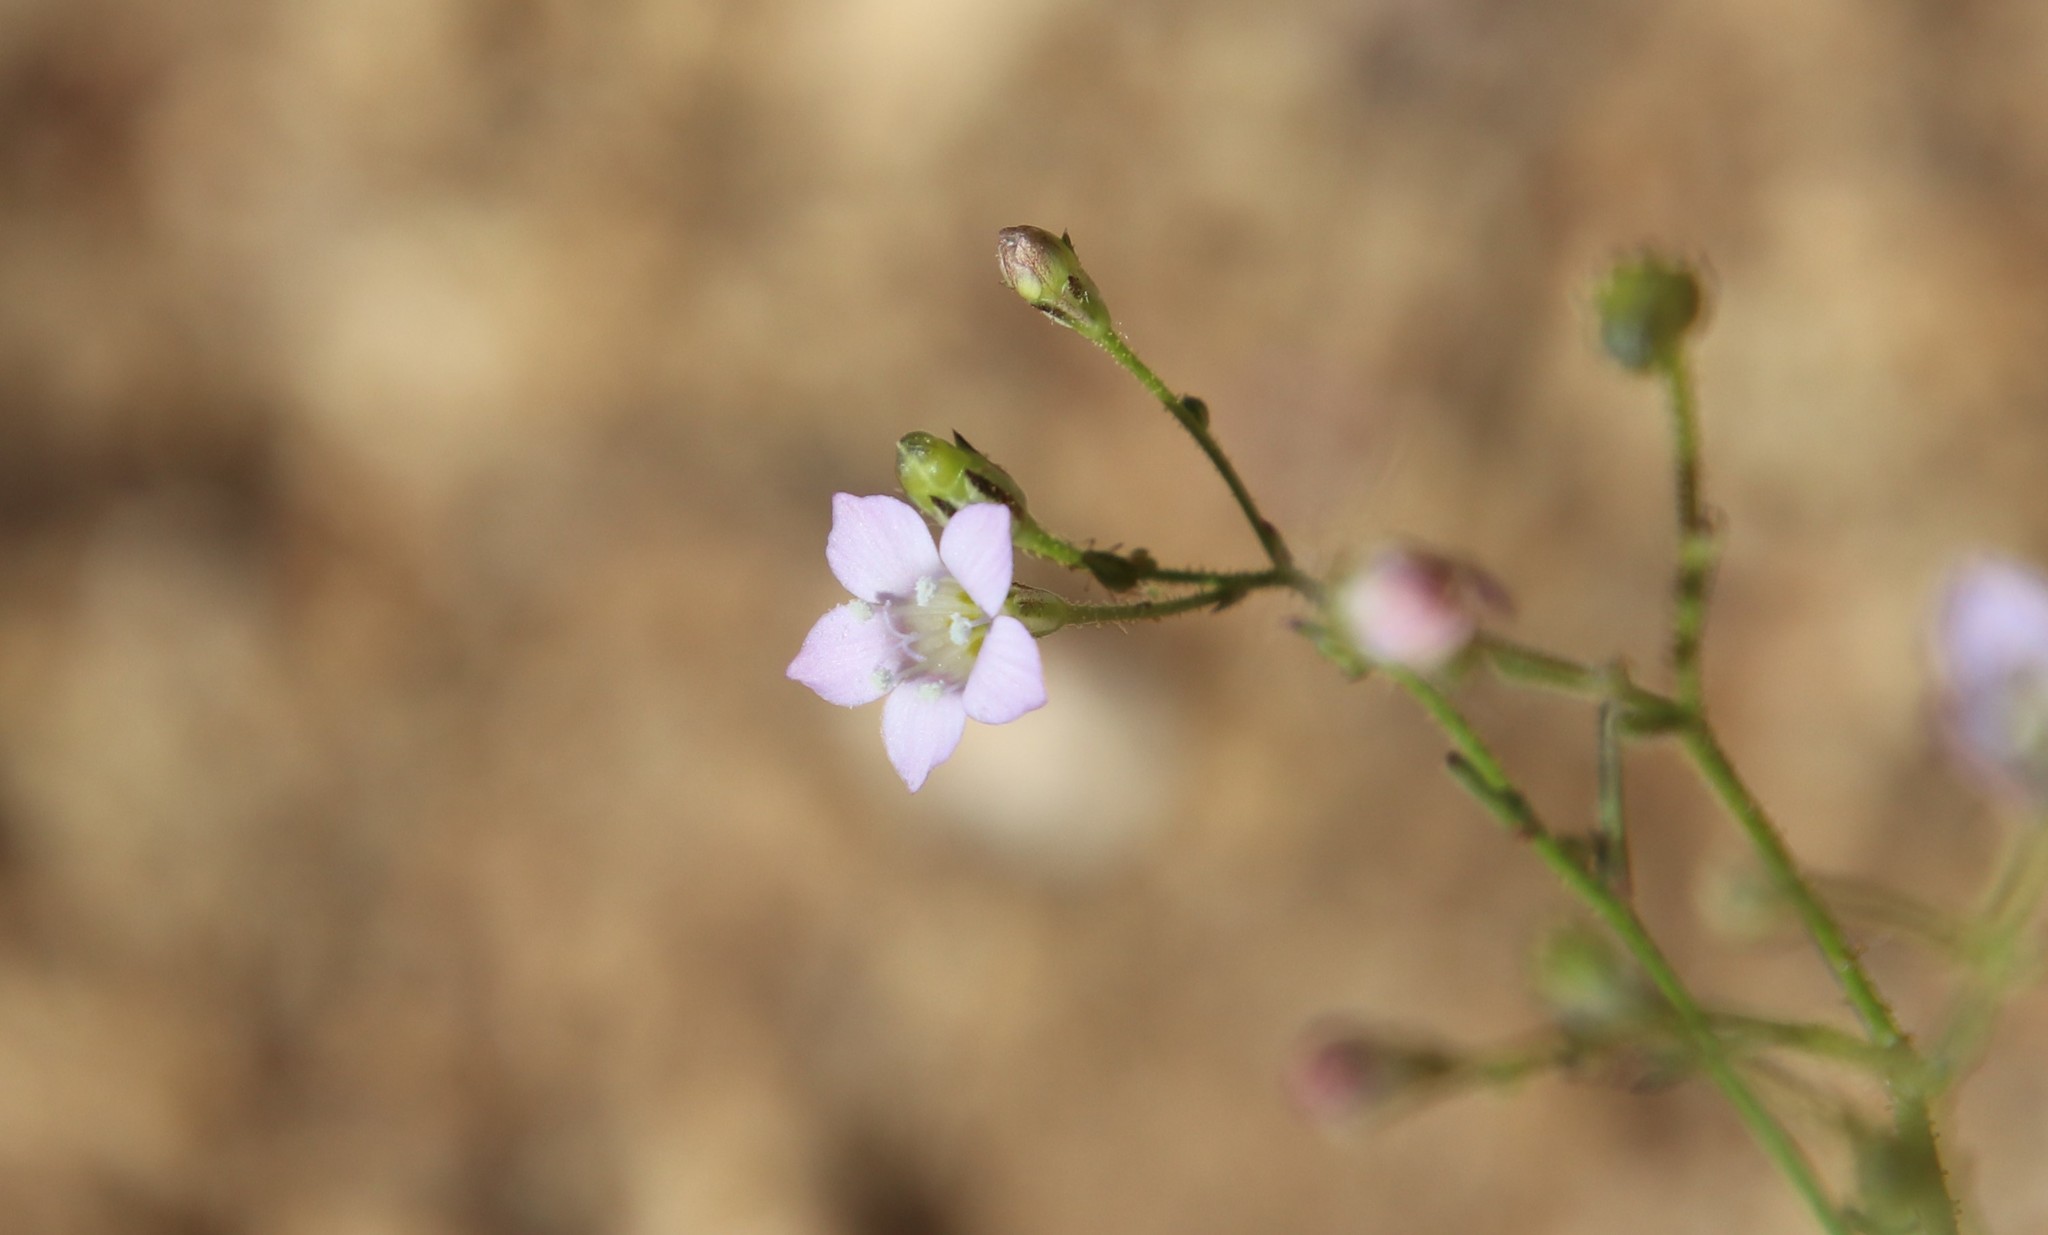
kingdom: Plantae
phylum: Tracheophyta
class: Magnoliopsida
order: Ericales
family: Polemoniaceae
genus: Saltugilia
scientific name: Saltugilia australis
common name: Southern gilia
